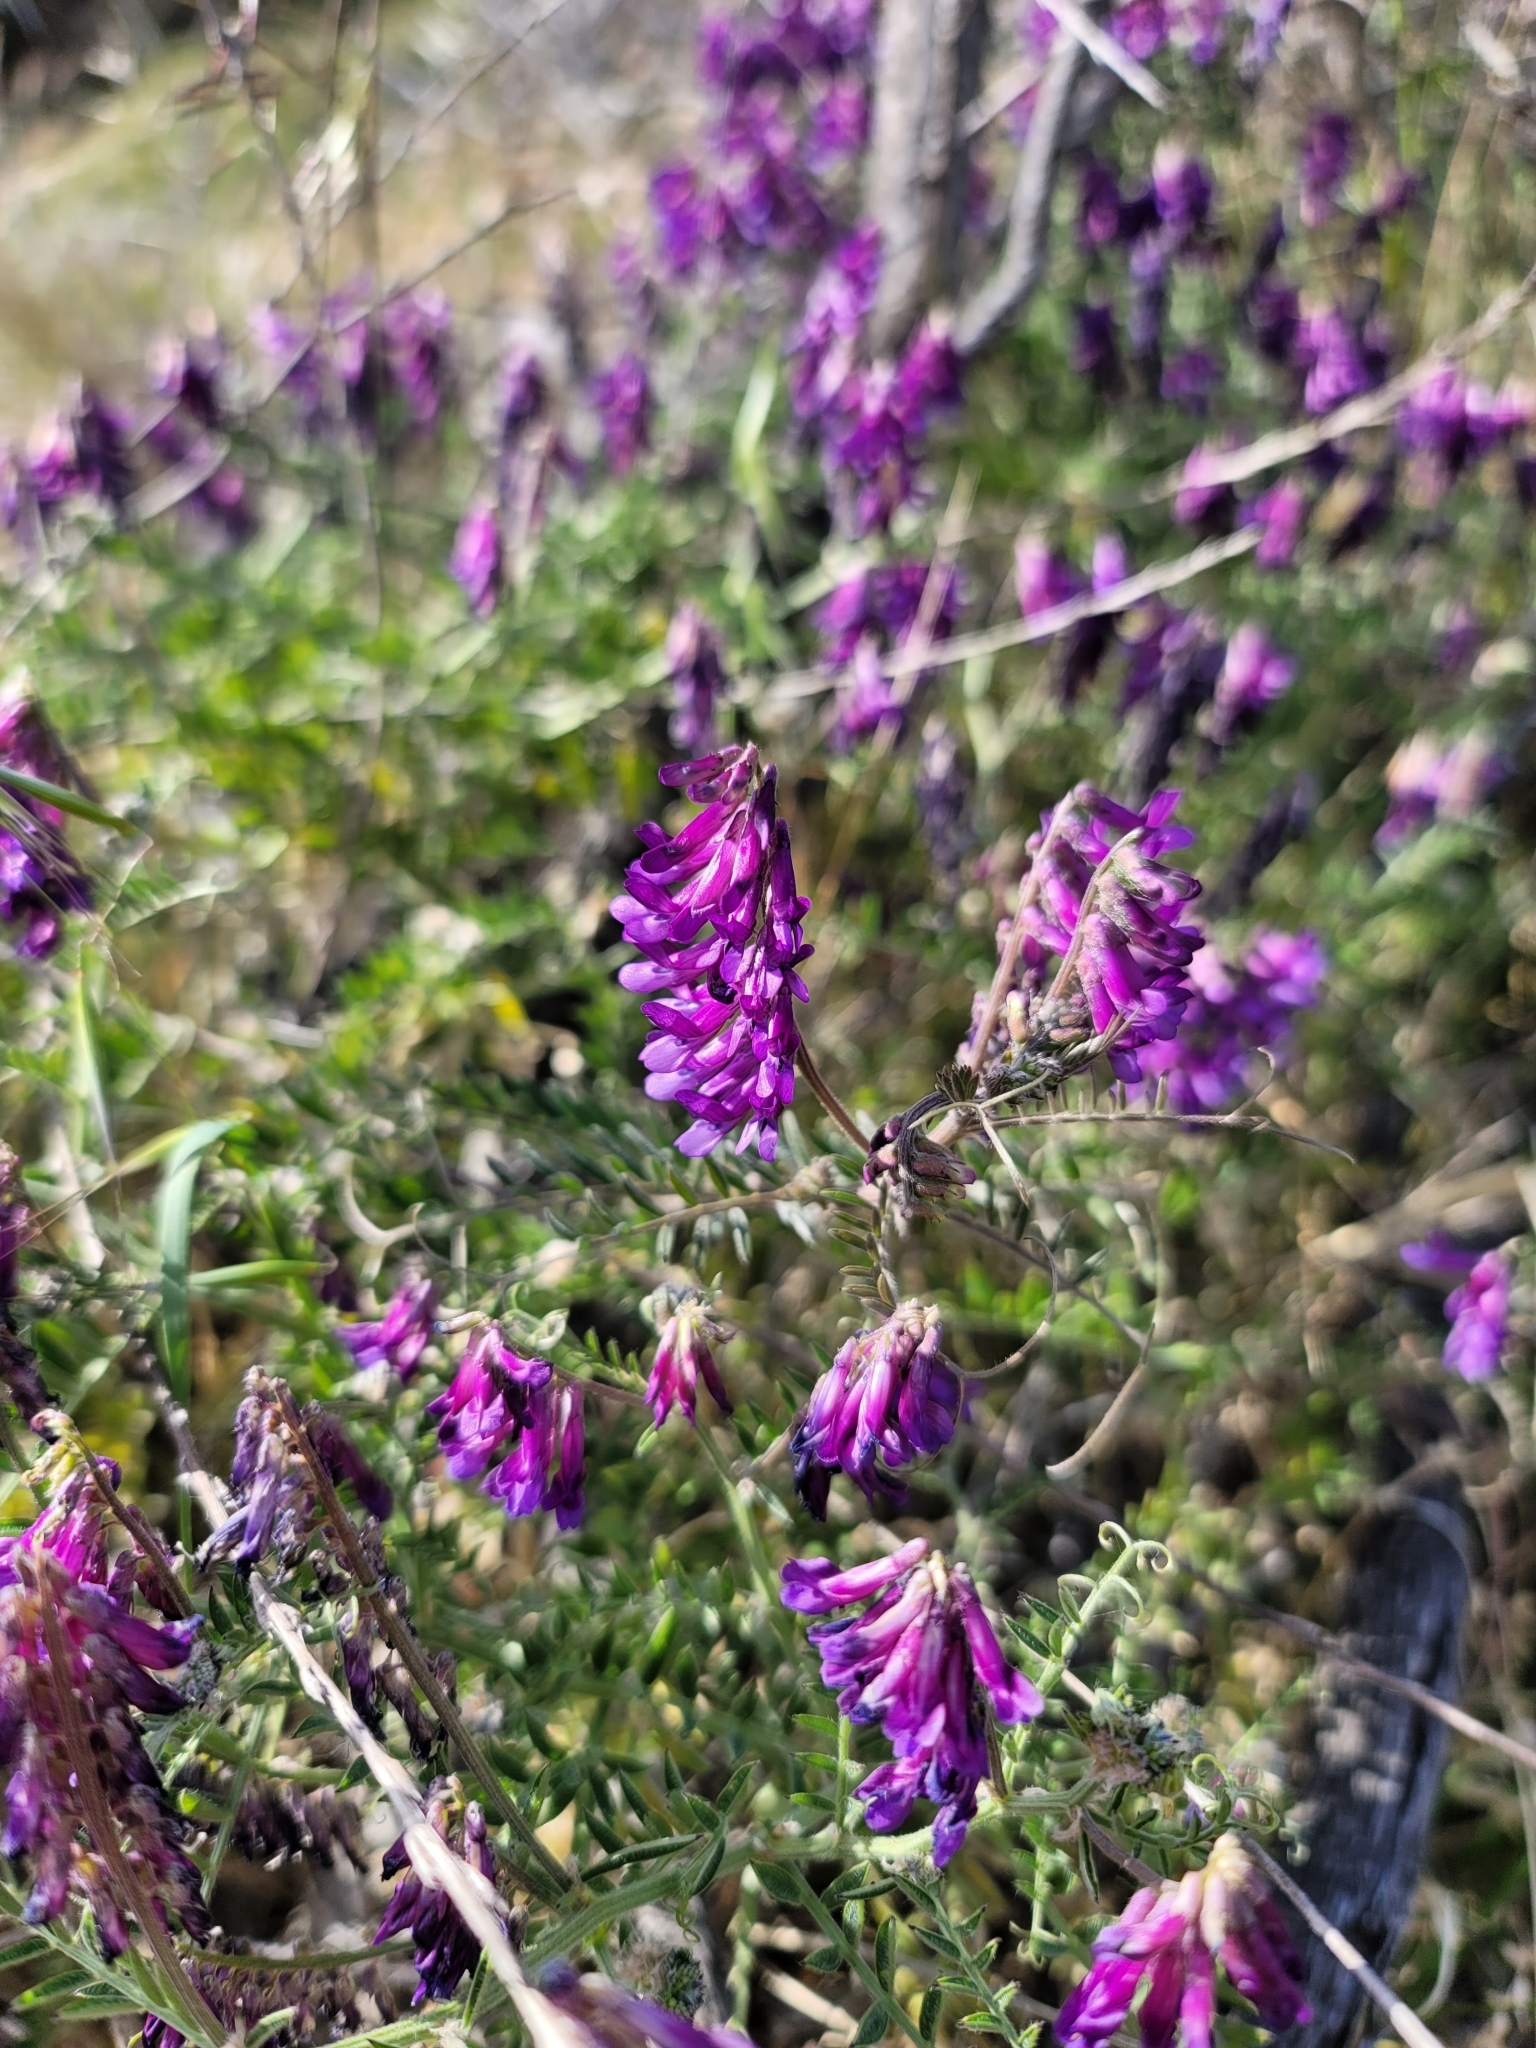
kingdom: Plantae
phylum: Tracheophyta
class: Magnoliopsida
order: Fabales
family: Fabaceae
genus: Vicia
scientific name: Vicia villosa
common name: Fodder vetch
